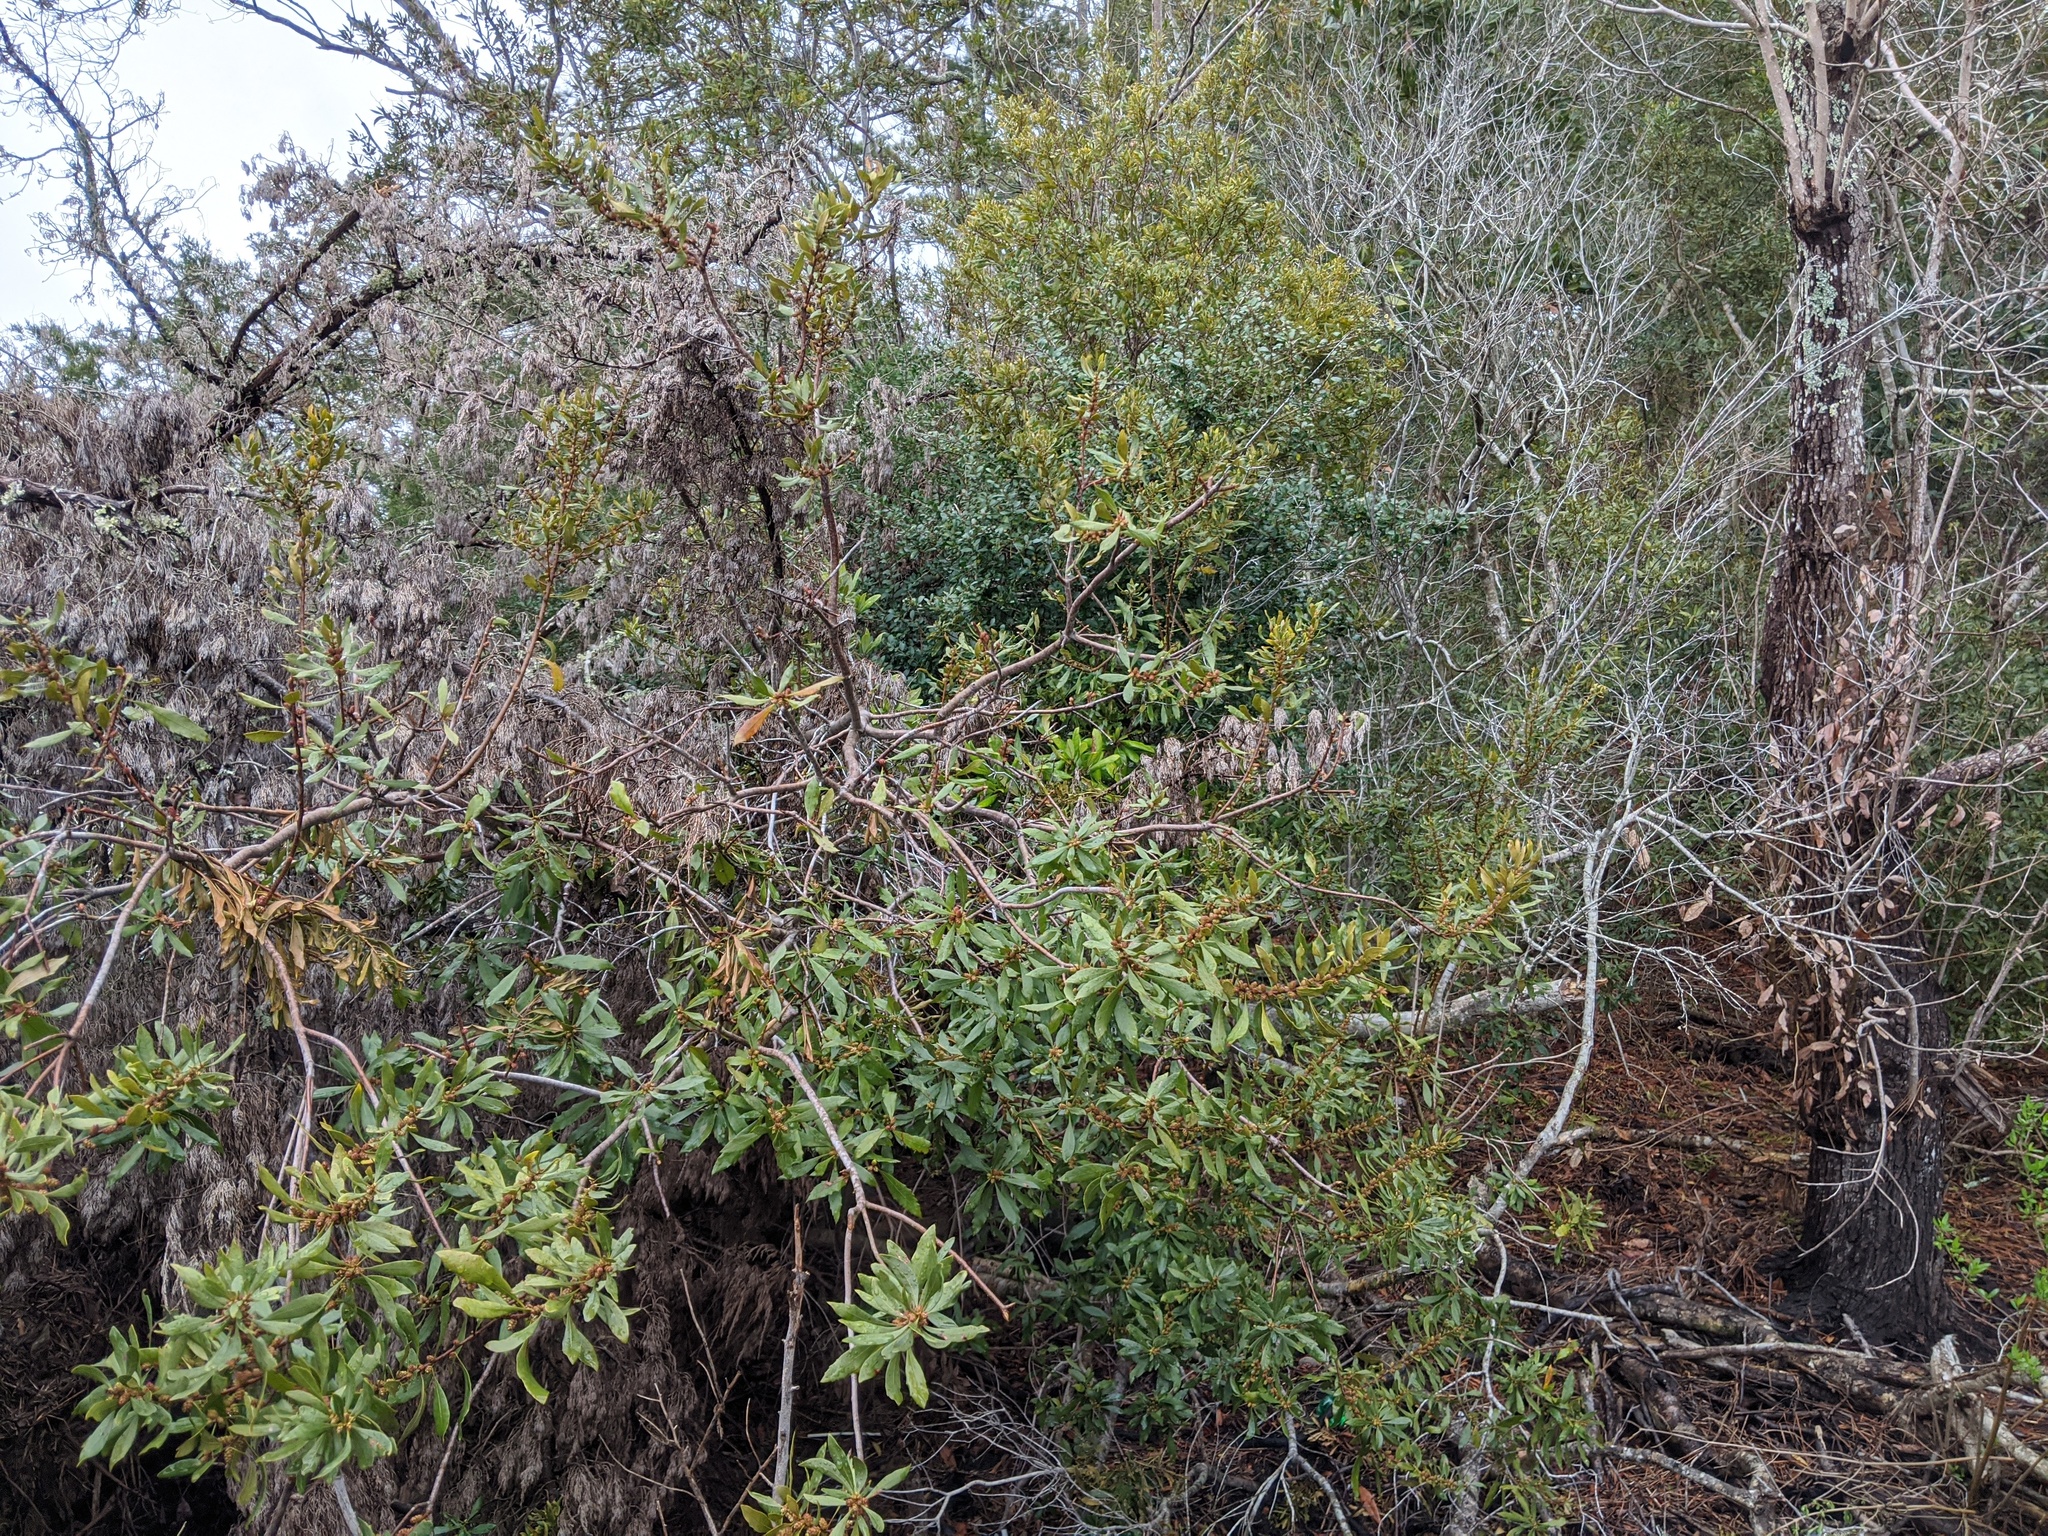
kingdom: Plantae
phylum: Tracheophyta
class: Magnoliopsida
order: Fagales
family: Myricaceae
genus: Morella
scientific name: Morella cerifera
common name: Wax myrtle
